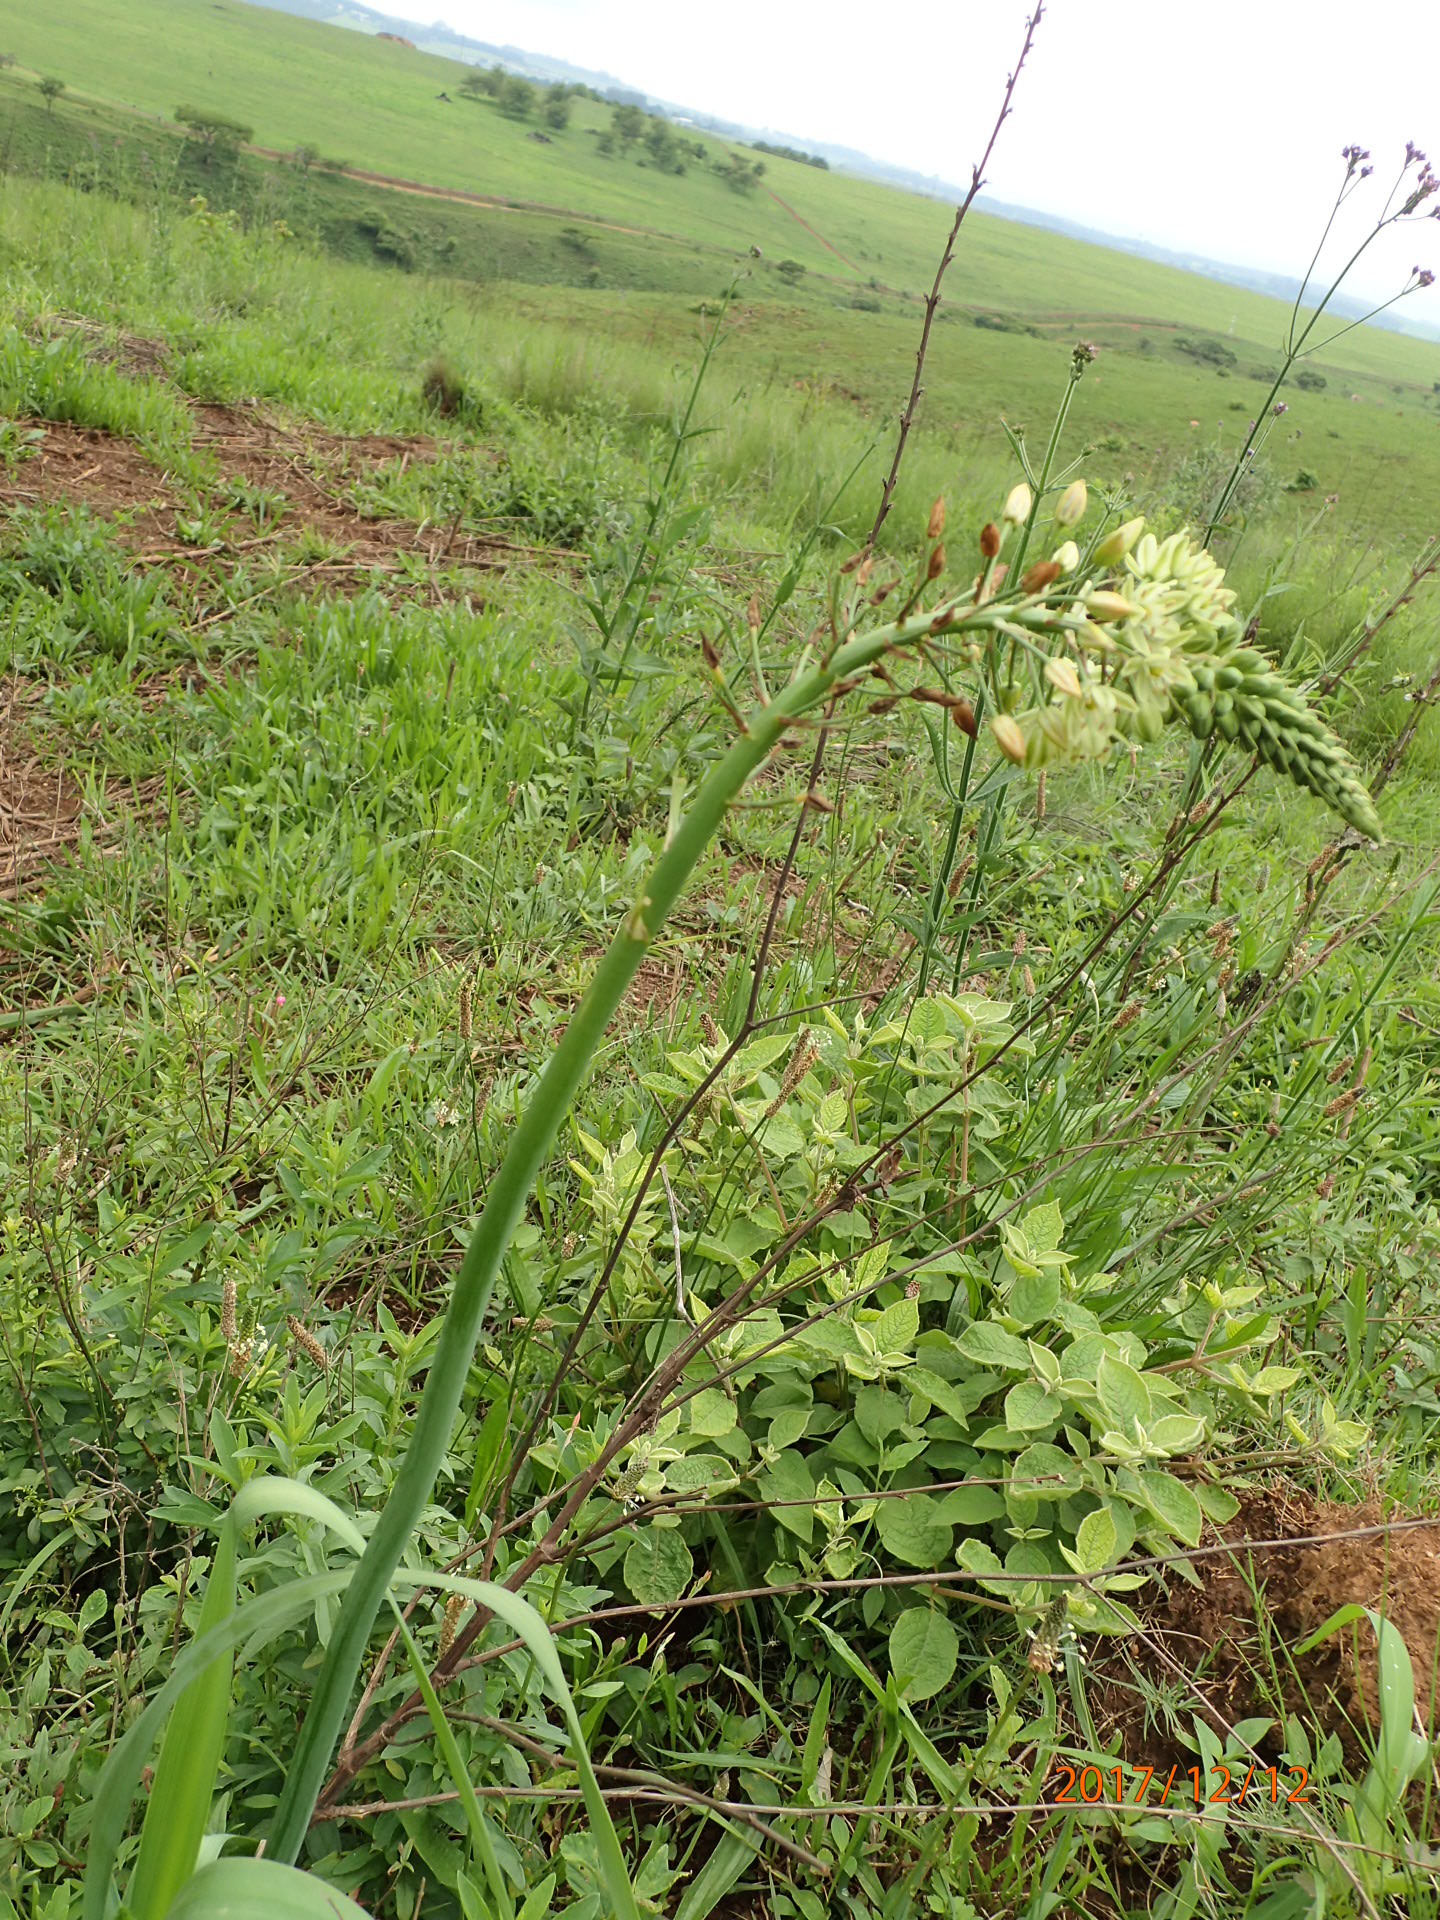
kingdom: Plantae
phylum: Tracheophyta
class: Liliopsida
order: Asparagales
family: Asparagaceae
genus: Albuca
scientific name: Albuca virens
